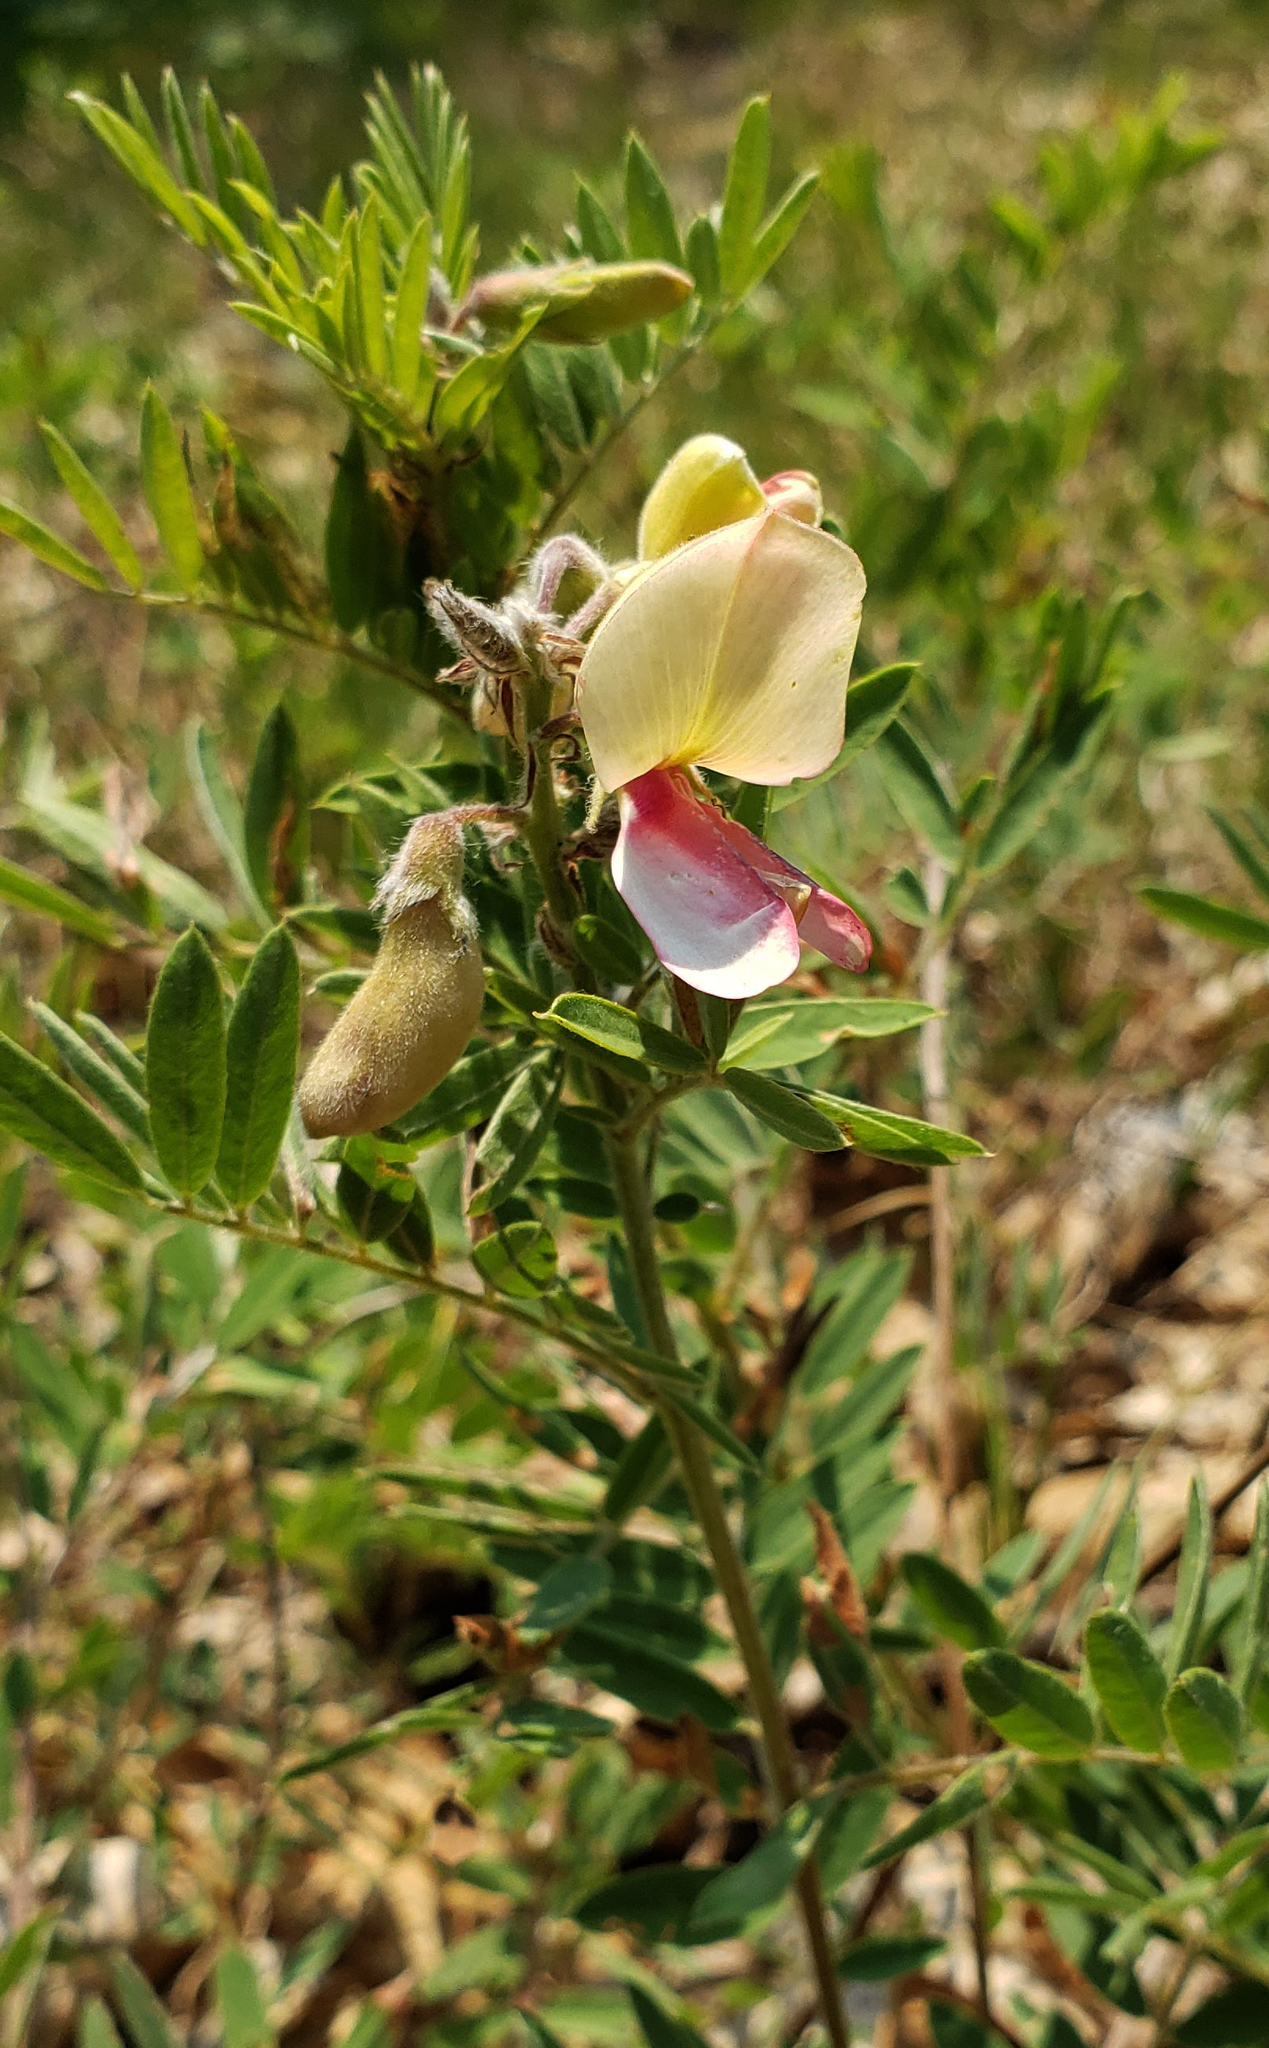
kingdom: Plantae
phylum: Tracheophyta
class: Magnoliopsida
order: Fabales
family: Fabaceae
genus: Tephrosia
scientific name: Tephrosia virginiana
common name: Rabbit-pea
